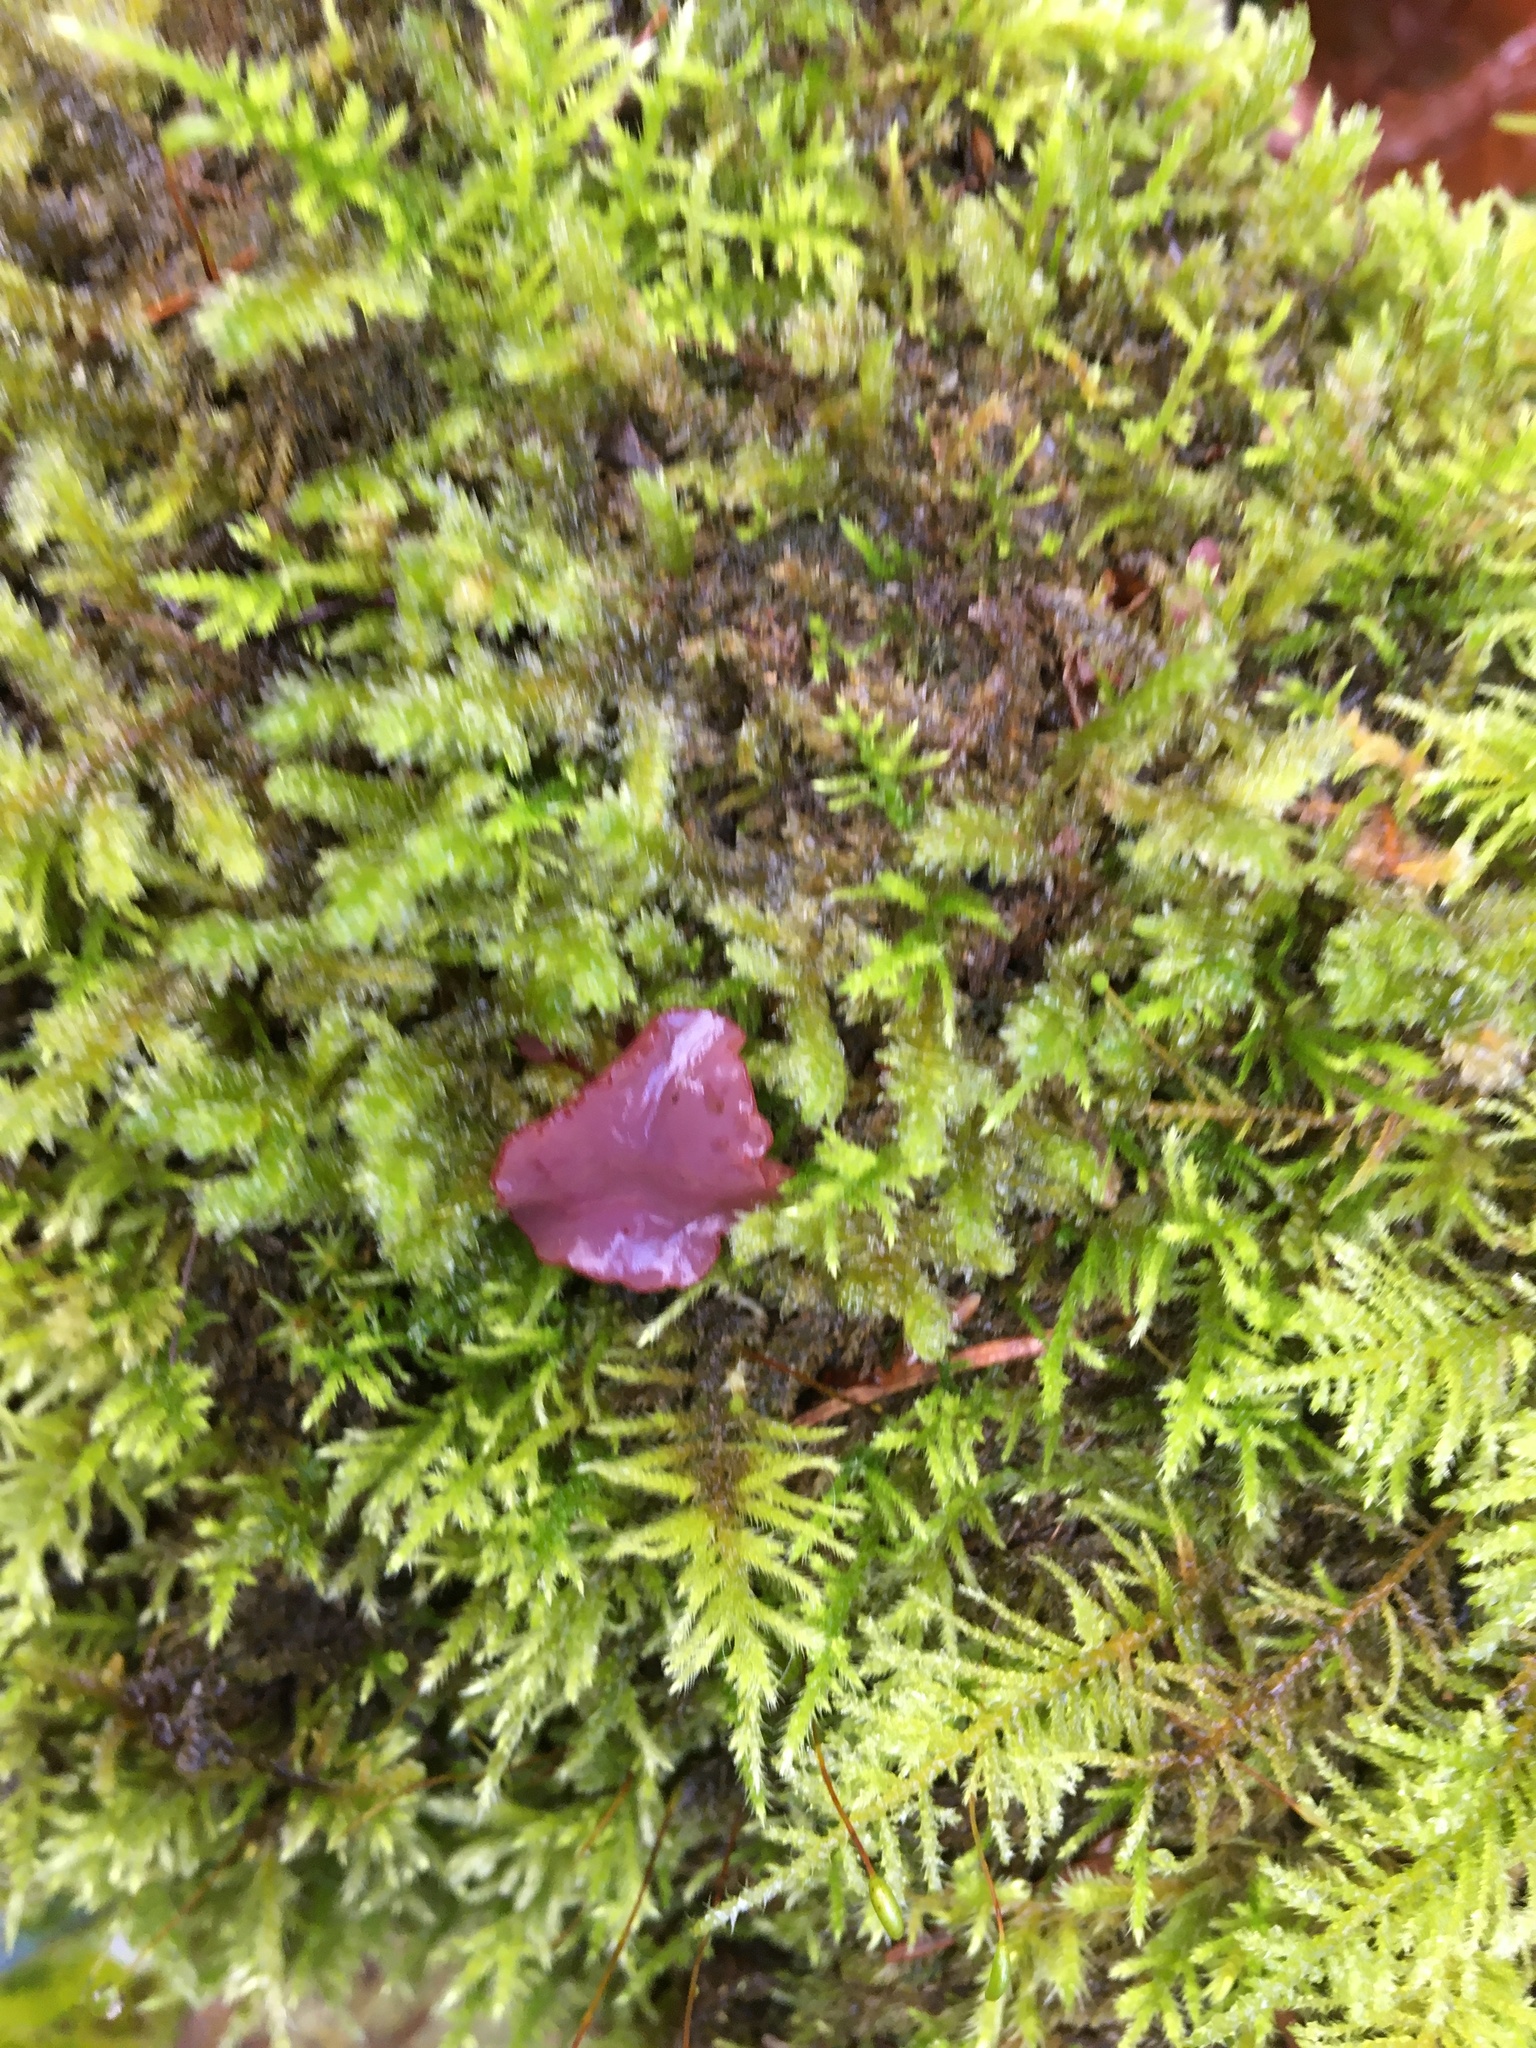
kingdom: Fungi
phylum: Ascomycota
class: Leotiomycetes
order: Helotiales
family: Gelatinodiscaceae
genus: Ascocoryne
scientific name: Ascocoryne sarcoides
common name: Purple jellydisc
